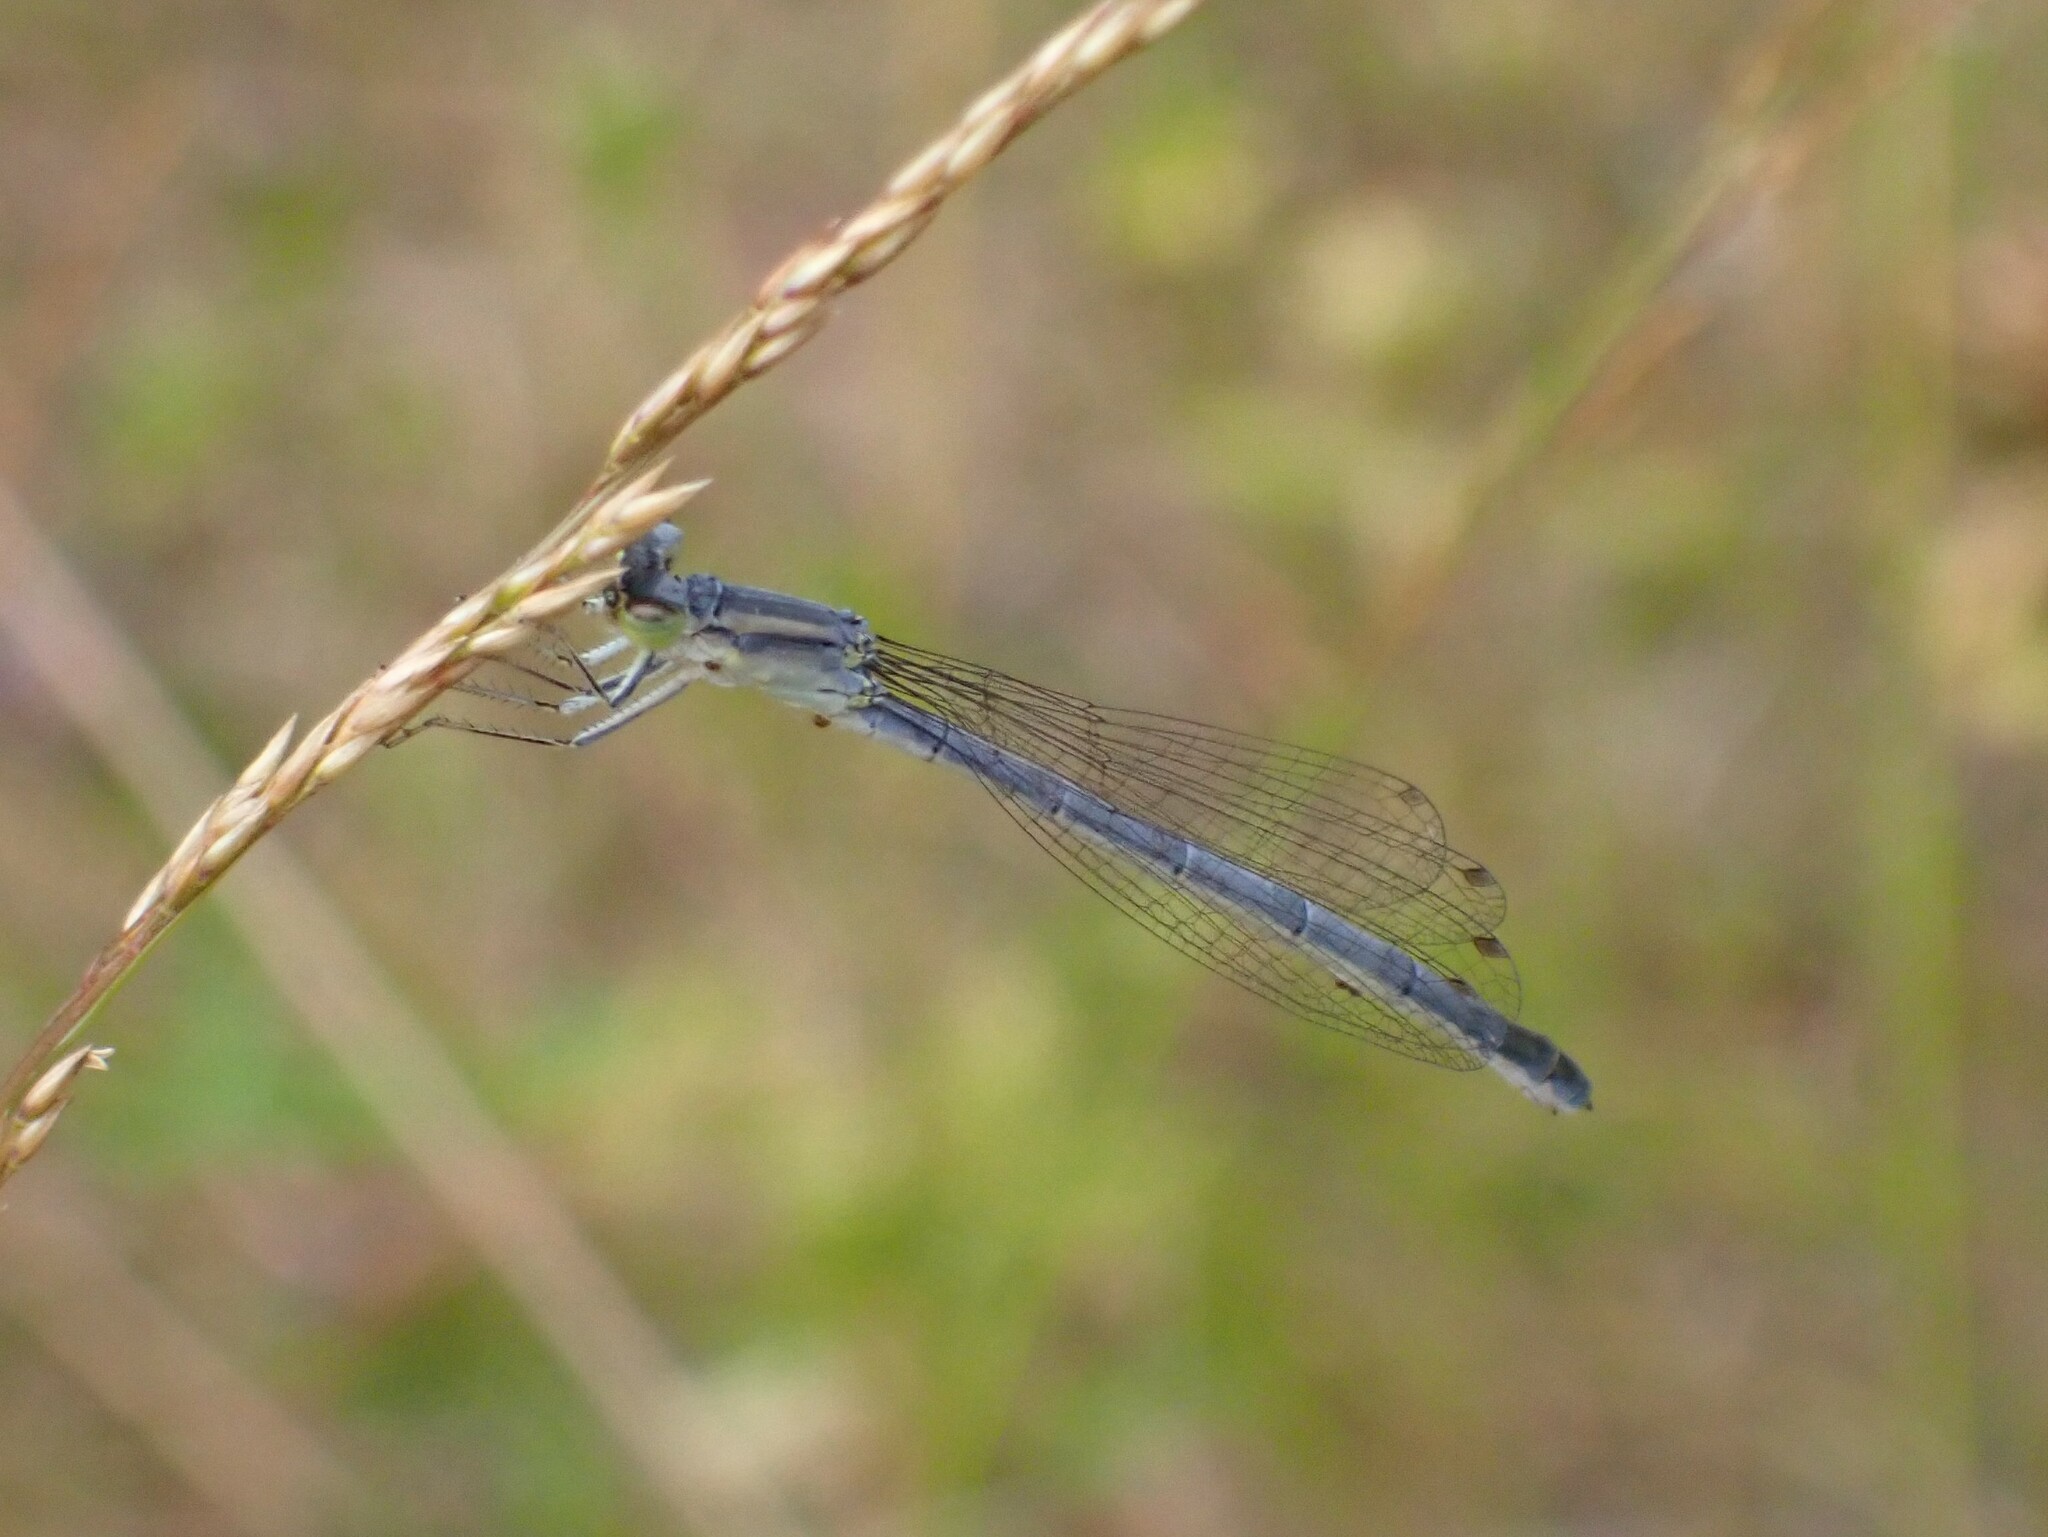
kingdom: Animalia
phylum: Arthropoda
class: Insecta
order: Odonata
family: Coenagrionidae
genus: Ischnura
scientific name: Ischnura perparva
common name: Western forktail
